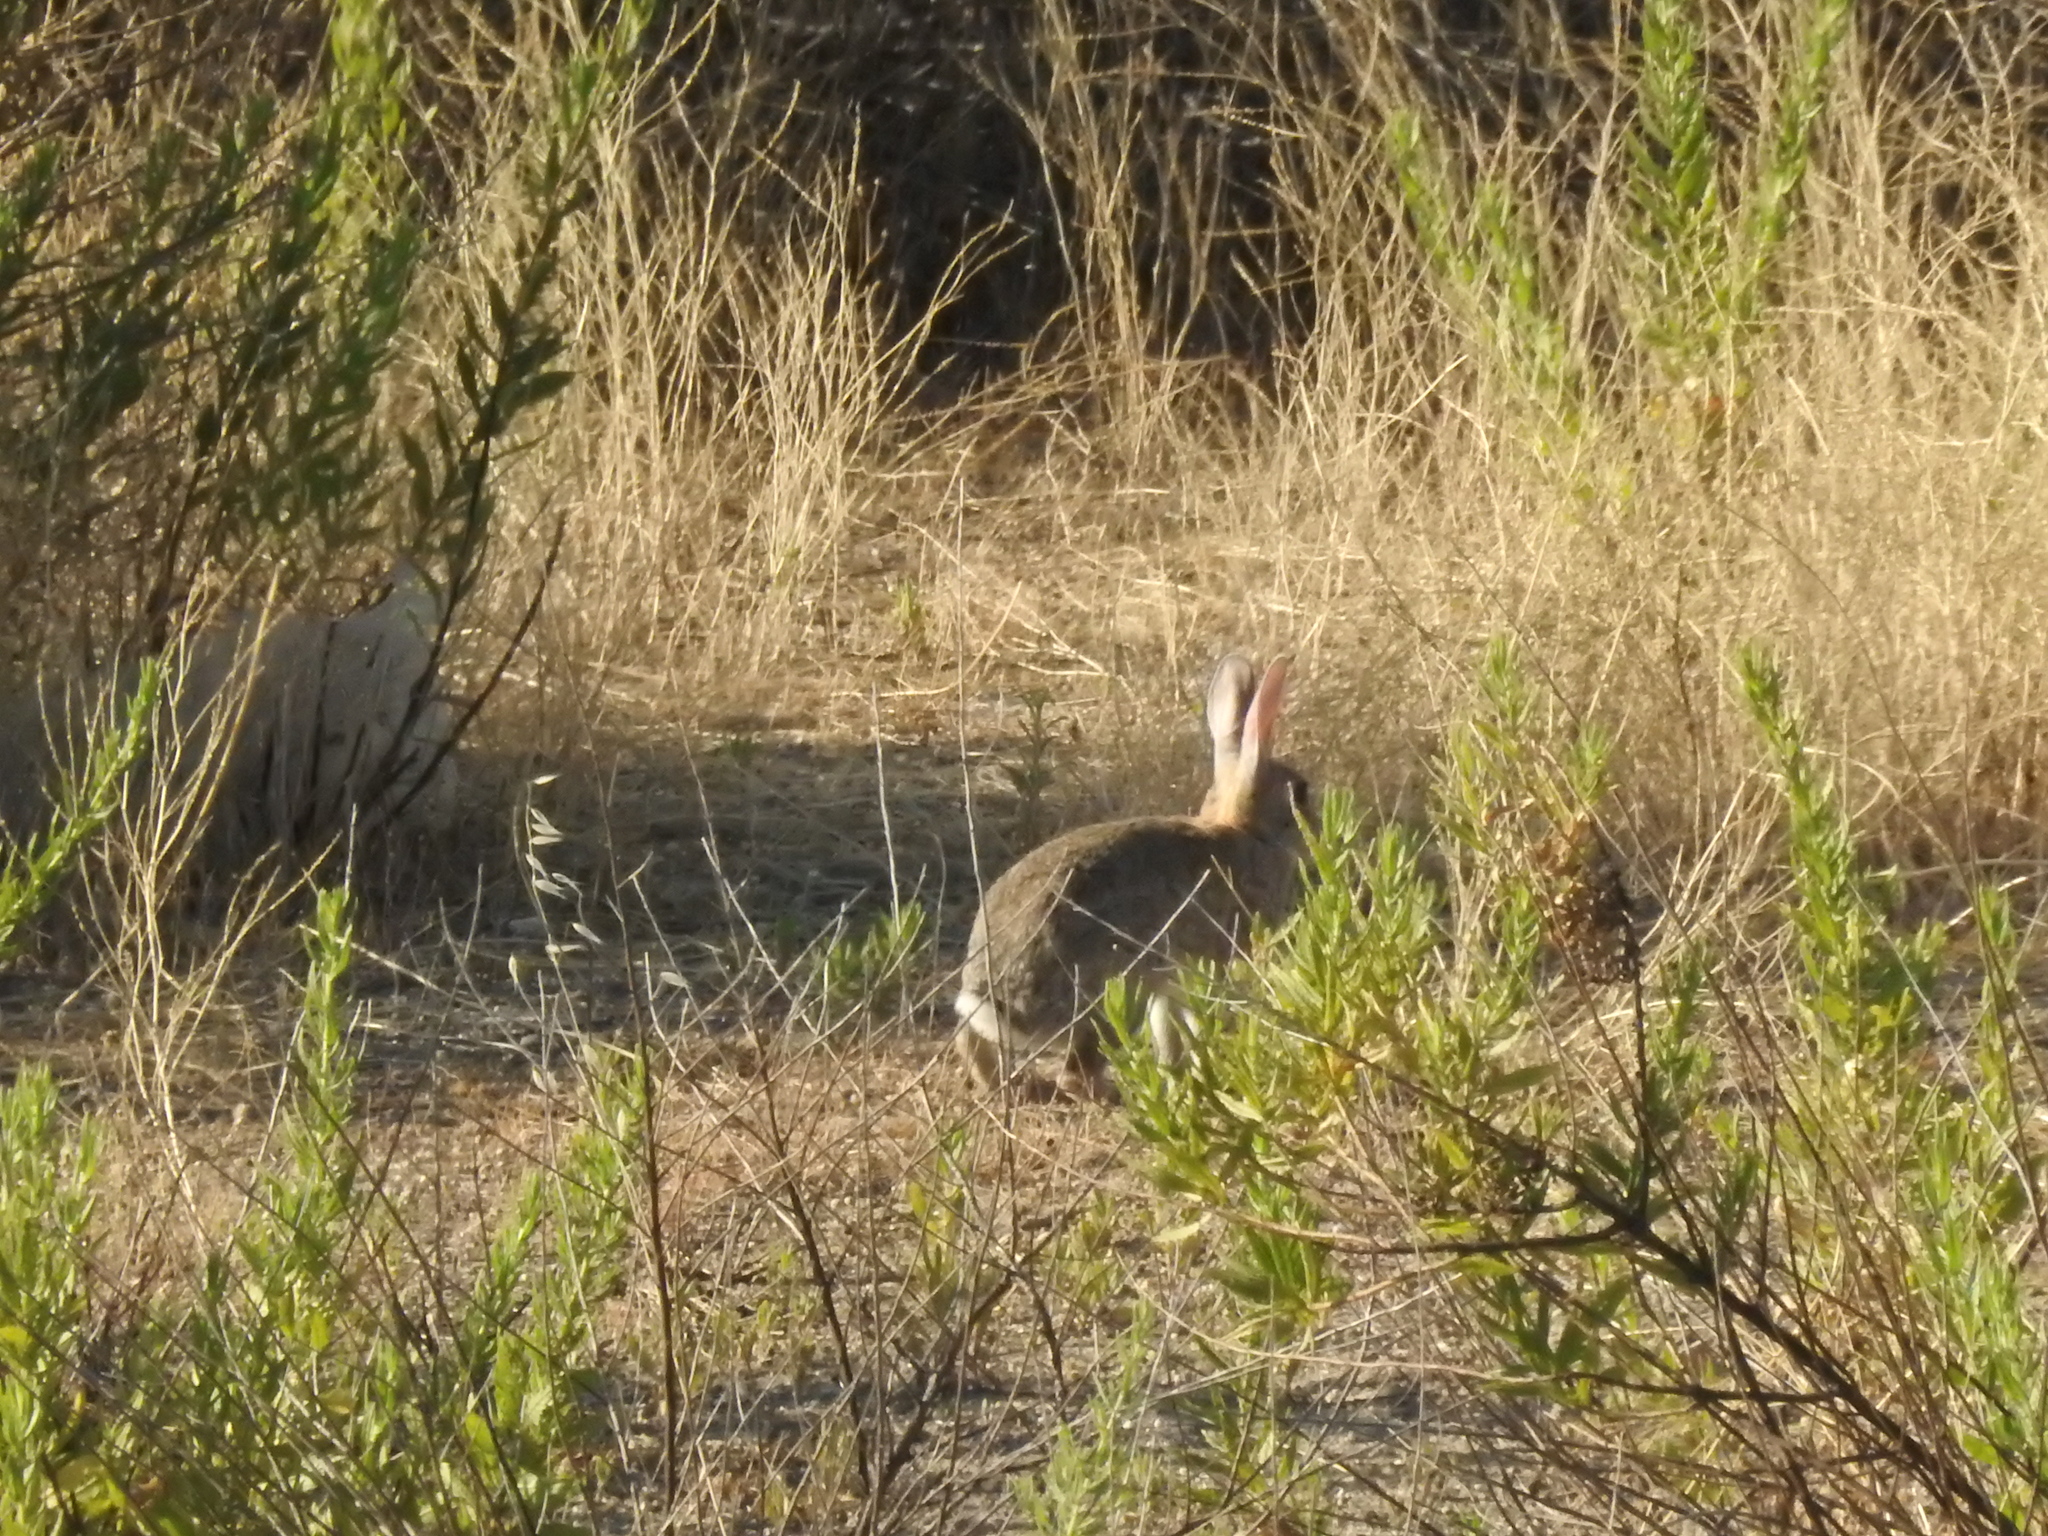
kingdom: Animalia
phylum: Chordata
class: Mammalia
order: Lagomorpha
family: Leporidae
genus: Oryctolagus
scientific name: Oryctolagus cuniculus
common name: European rabbit
